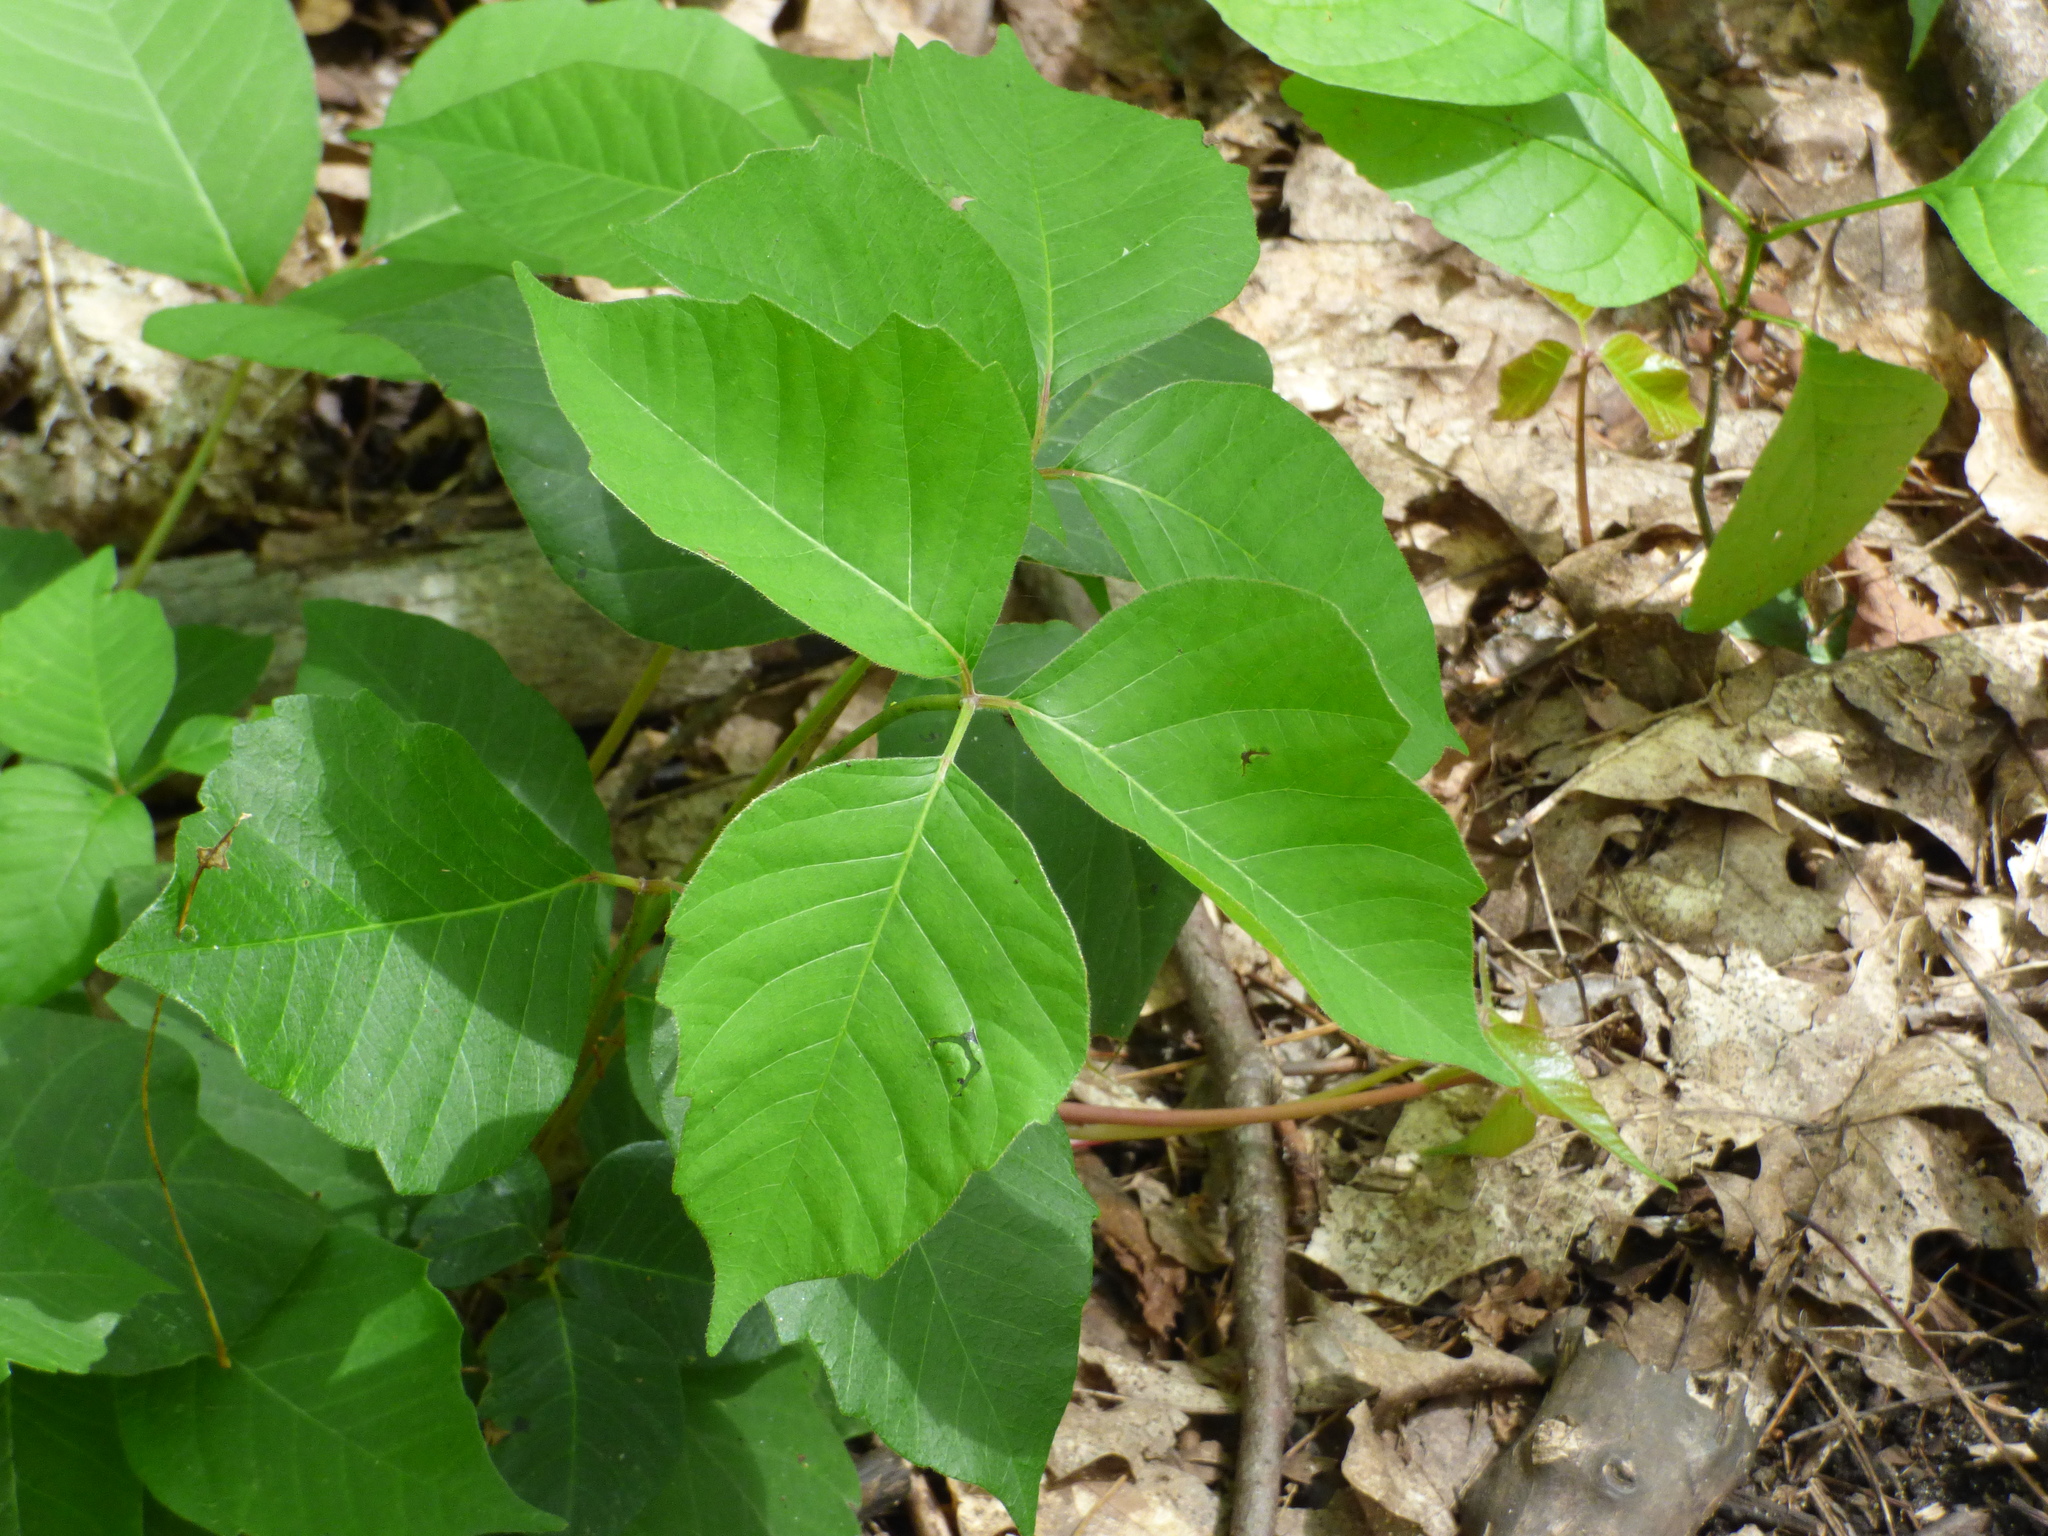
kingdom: Plantae
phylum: Tracheophyta
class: Magnoliopsida
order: Sapindales
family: Anacardiaceae
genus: Toxicodendron
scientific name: Toxicodendron radicans
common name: Poison ivy
